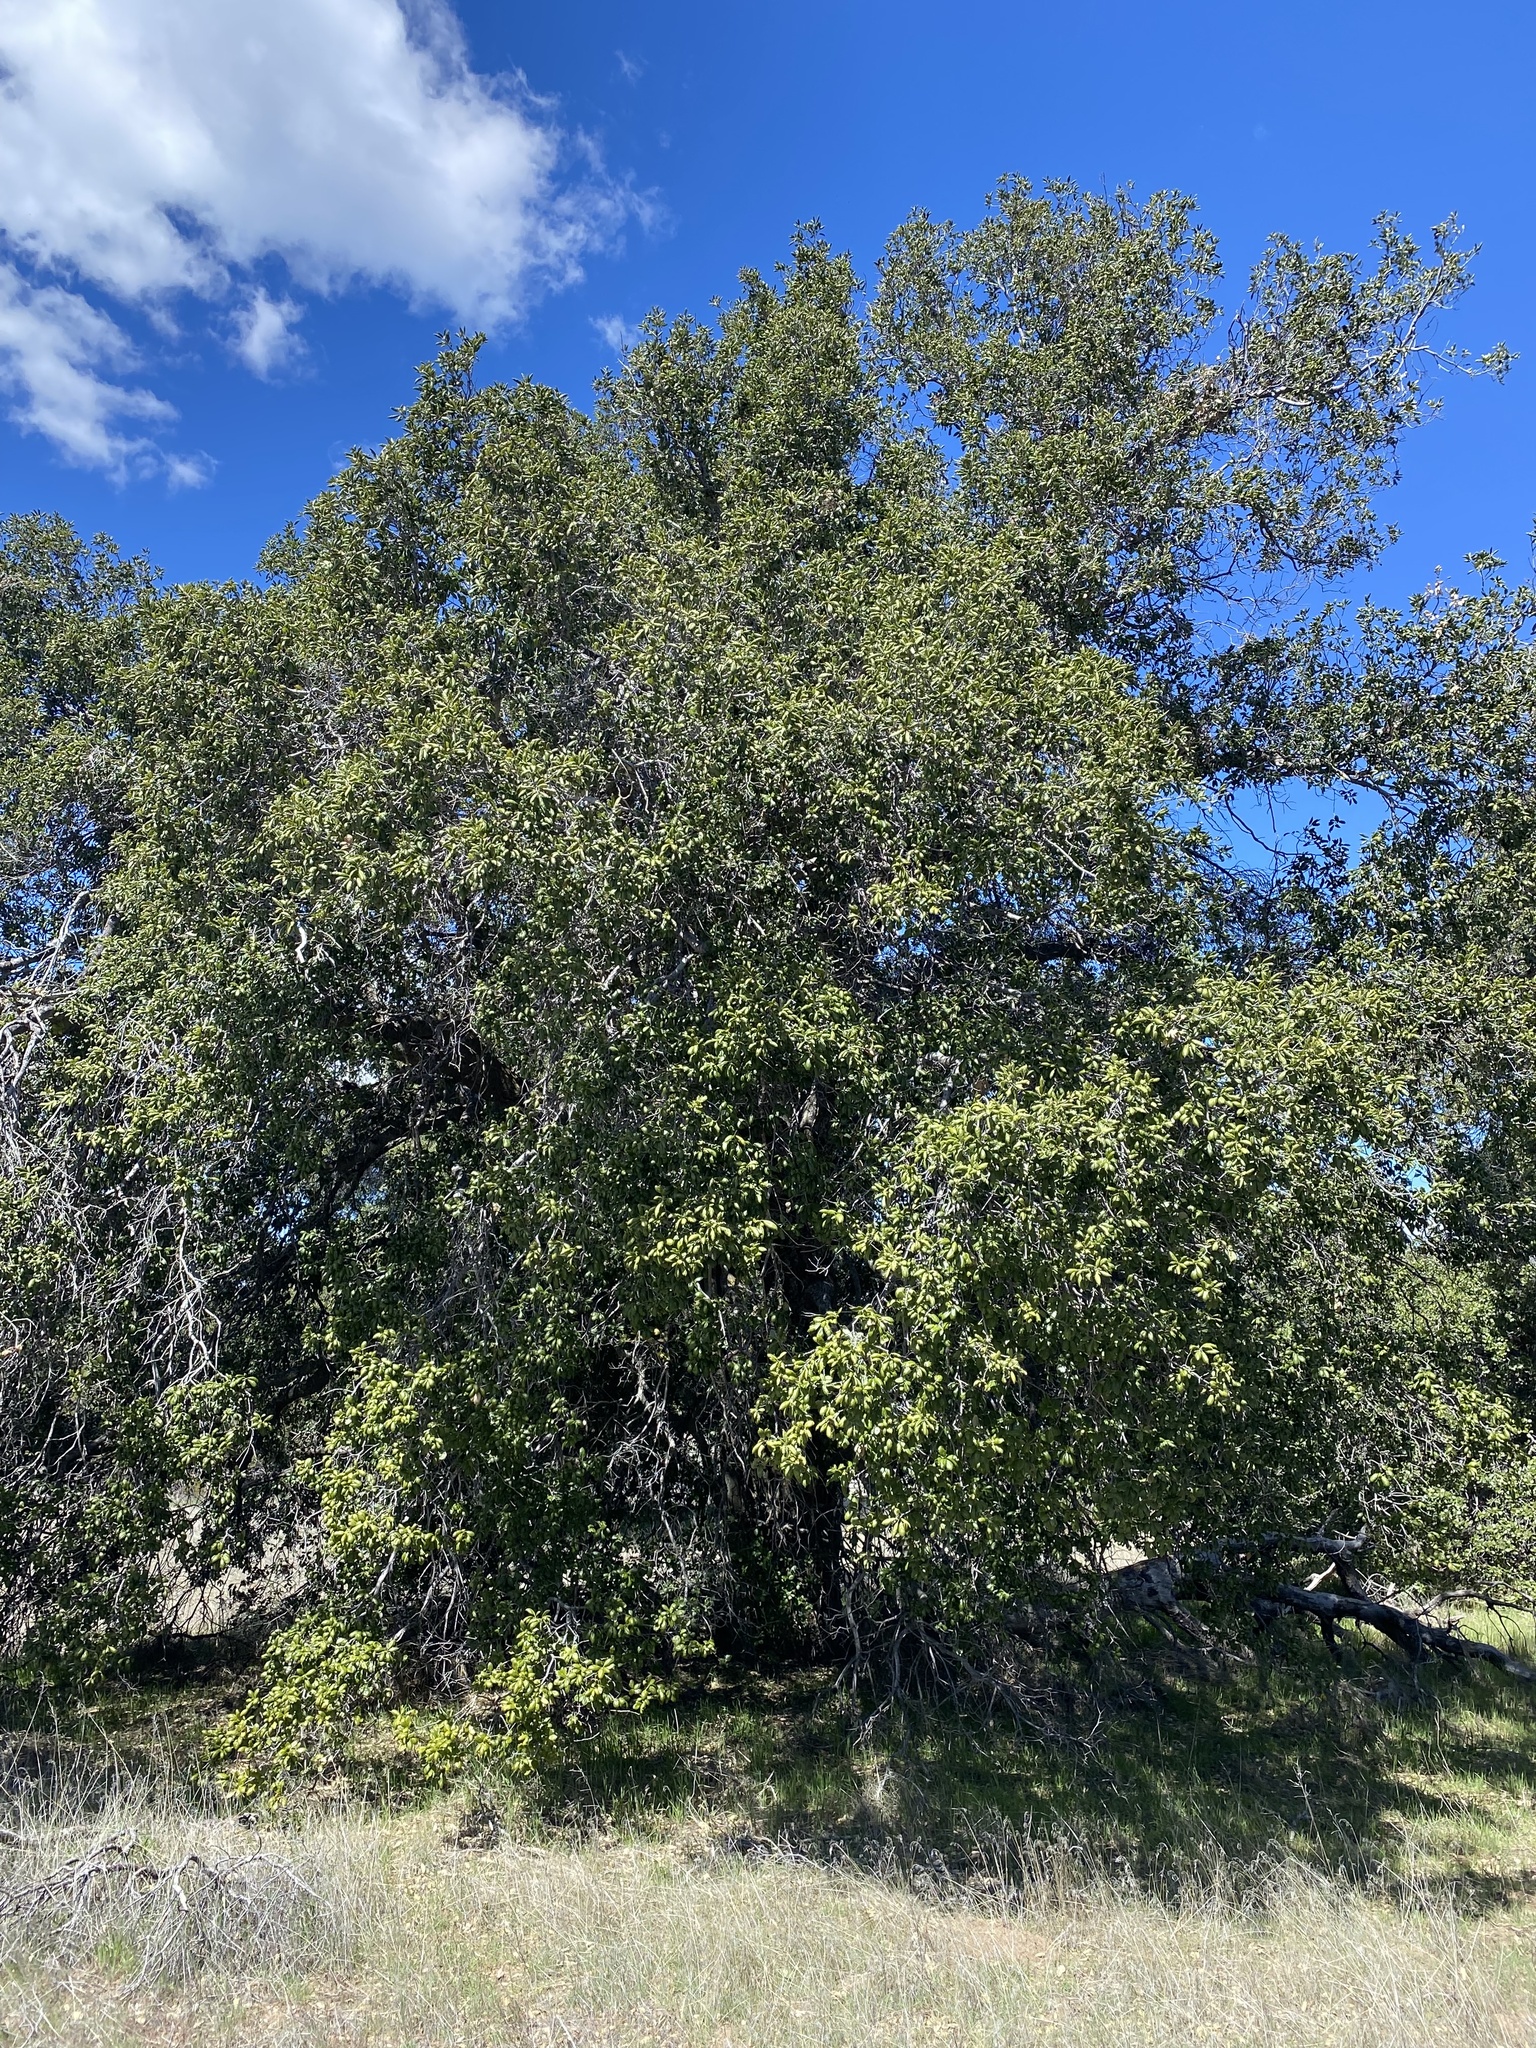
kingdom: Plantae
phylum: Tracheophyta
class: Magnoliopsida
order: Fagales
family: Fagaceae
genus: Quercus
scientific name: Quercus agrifolia
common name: California live oak
